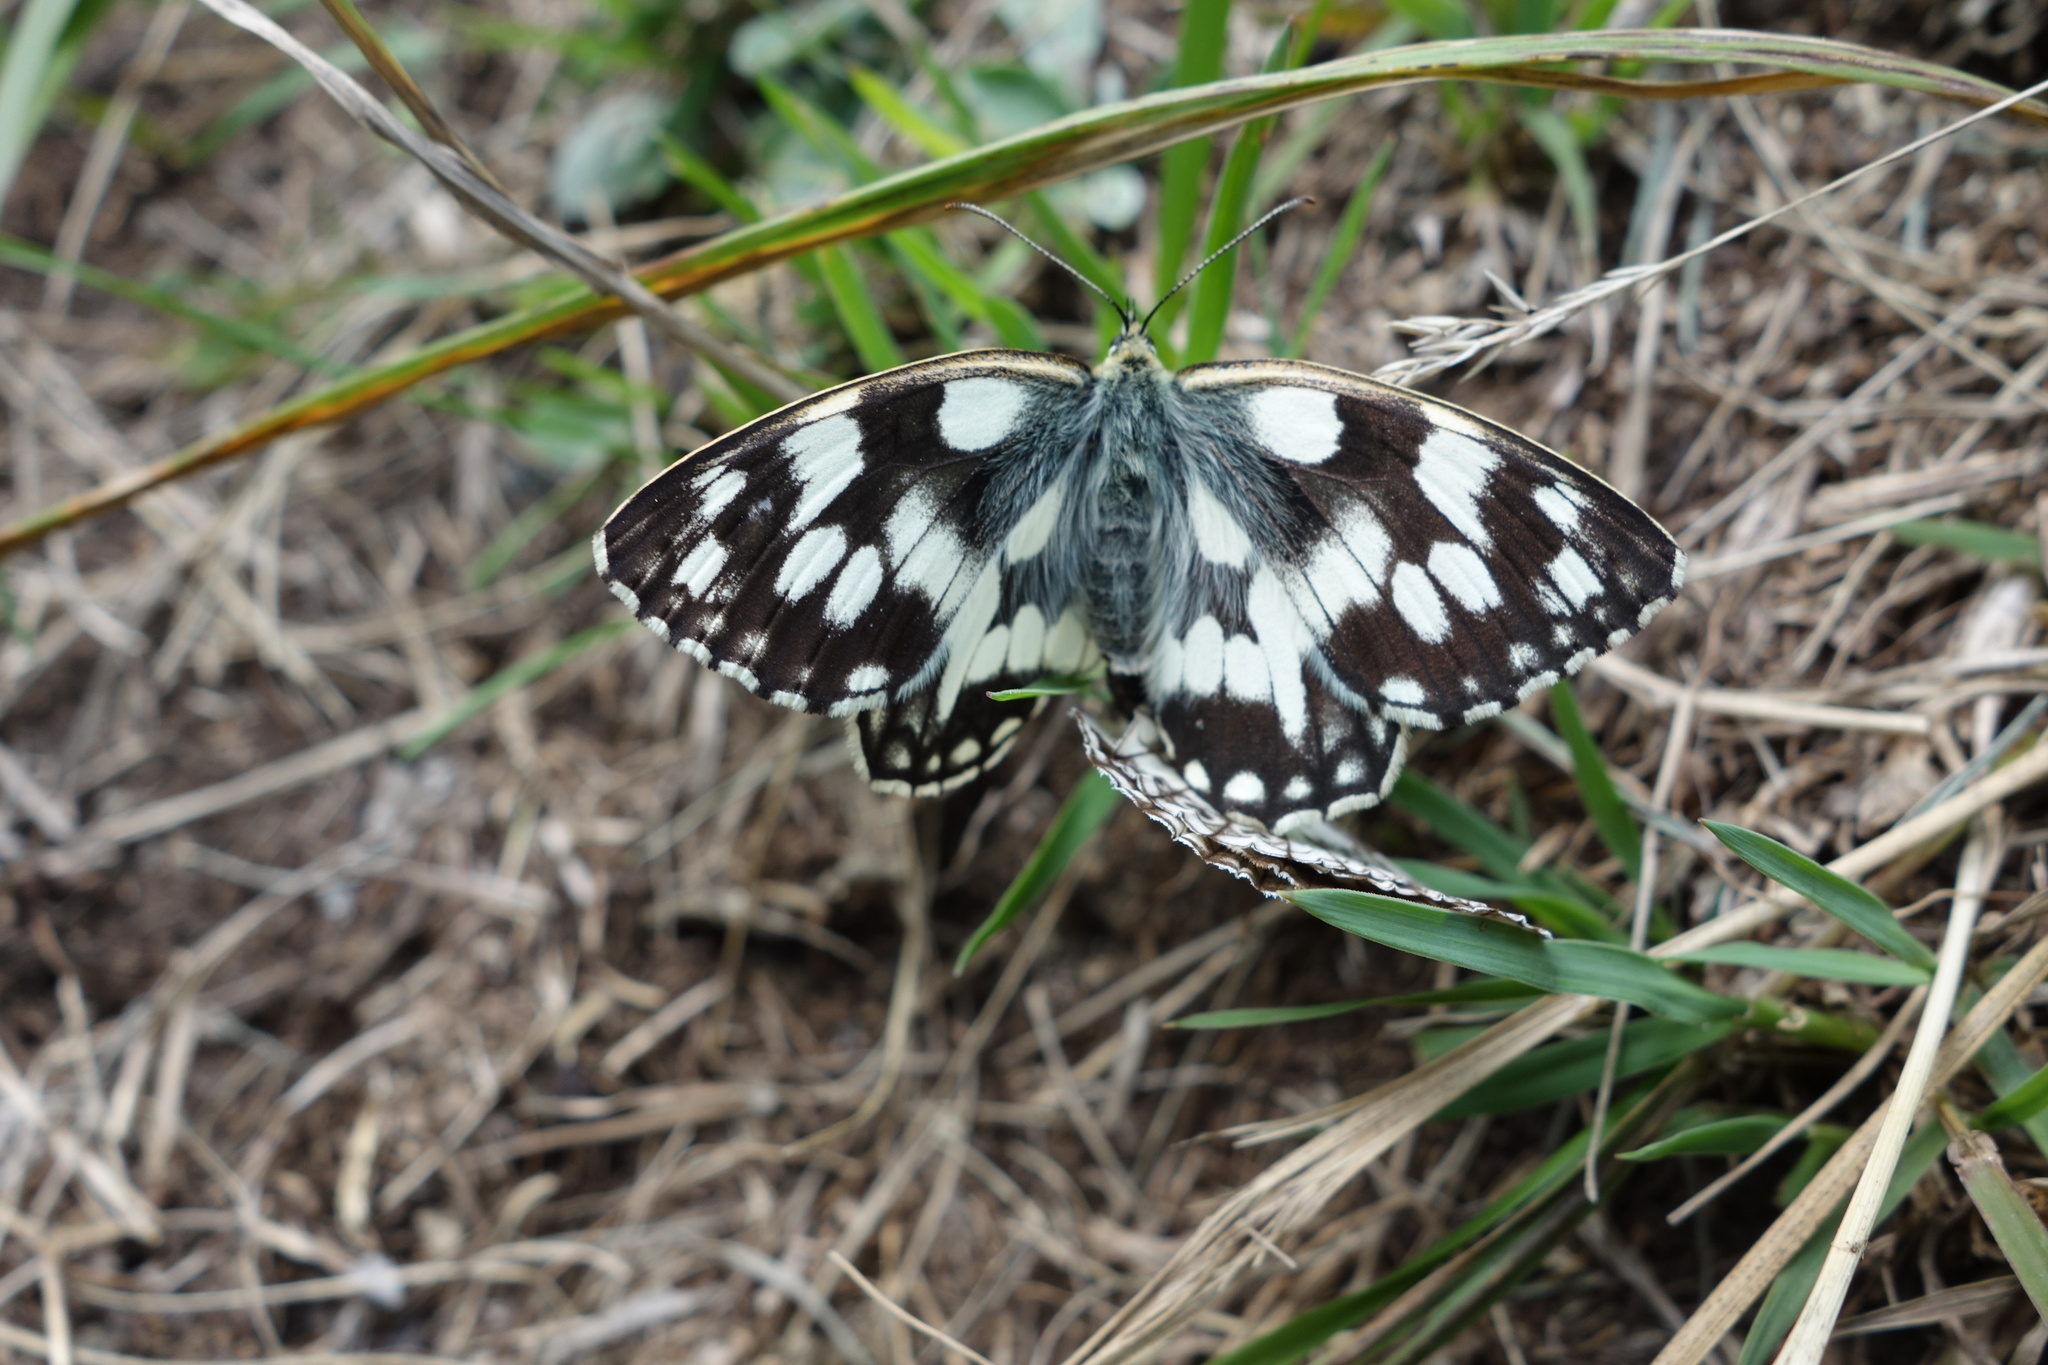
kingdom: Animalia
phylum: Arthropoda
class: Insecta
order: Lepidoptera
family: Nymphalidae
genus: Melanargia
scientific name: Melanargia galathea
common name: Marbled white
